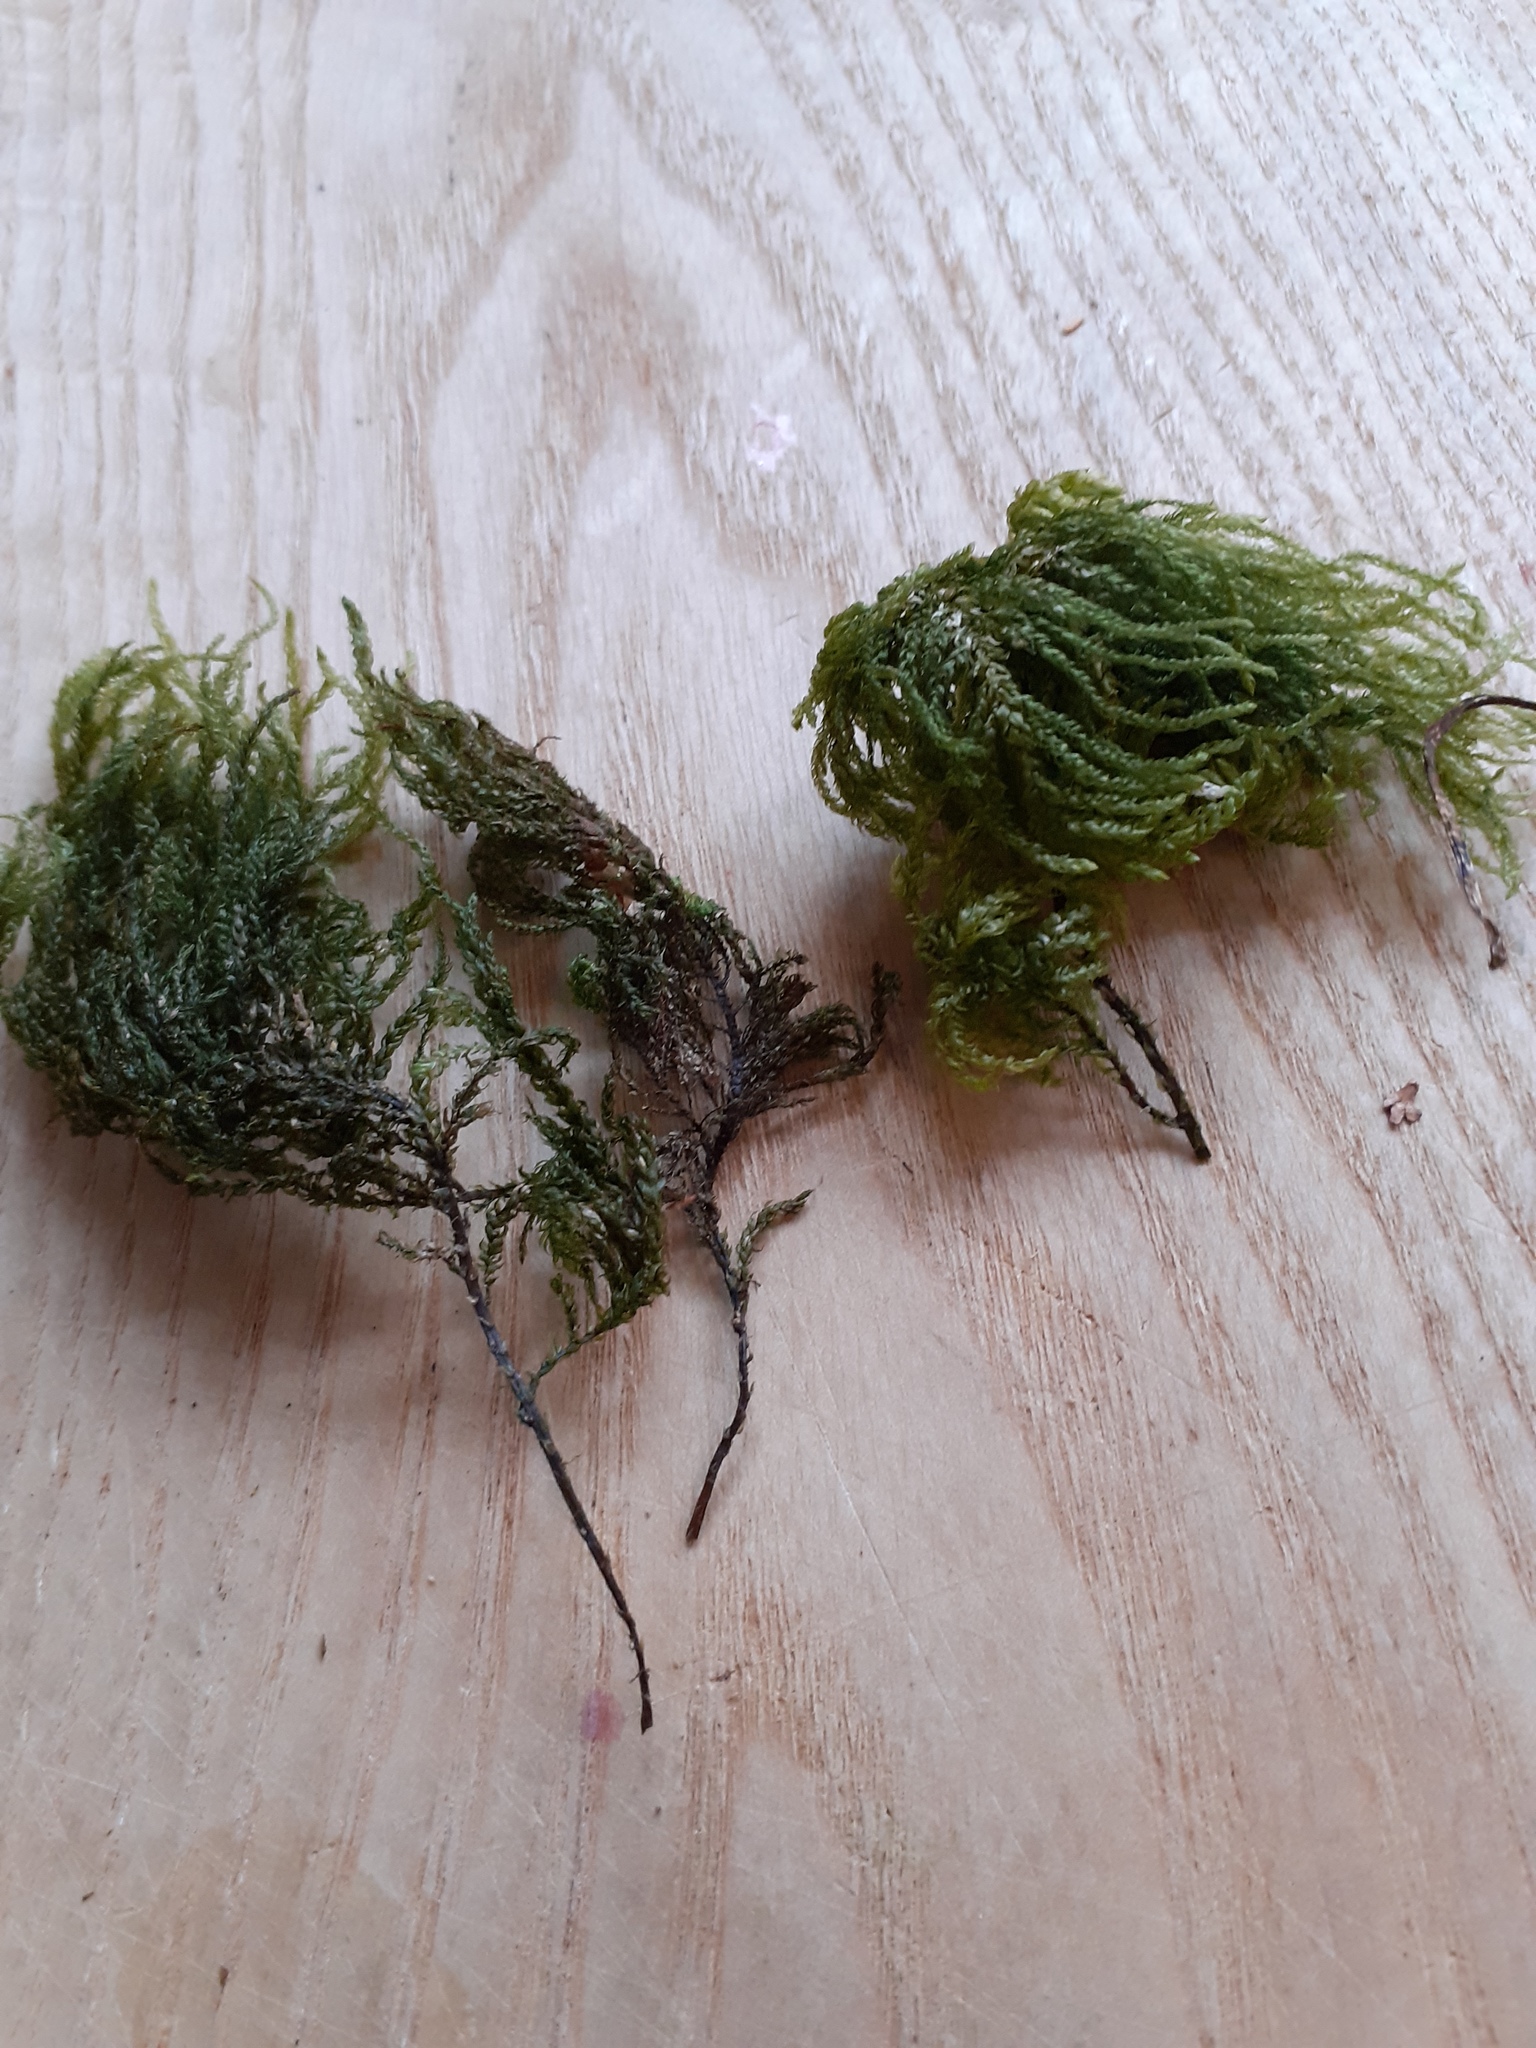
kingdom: Plantae
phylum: Bryophyta
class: Bryopsida
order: Hypnales
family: Neckeraceae
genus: Thamnobryum
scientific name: Thamnobryum alopecurum
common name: Fox-tail feather-moss
